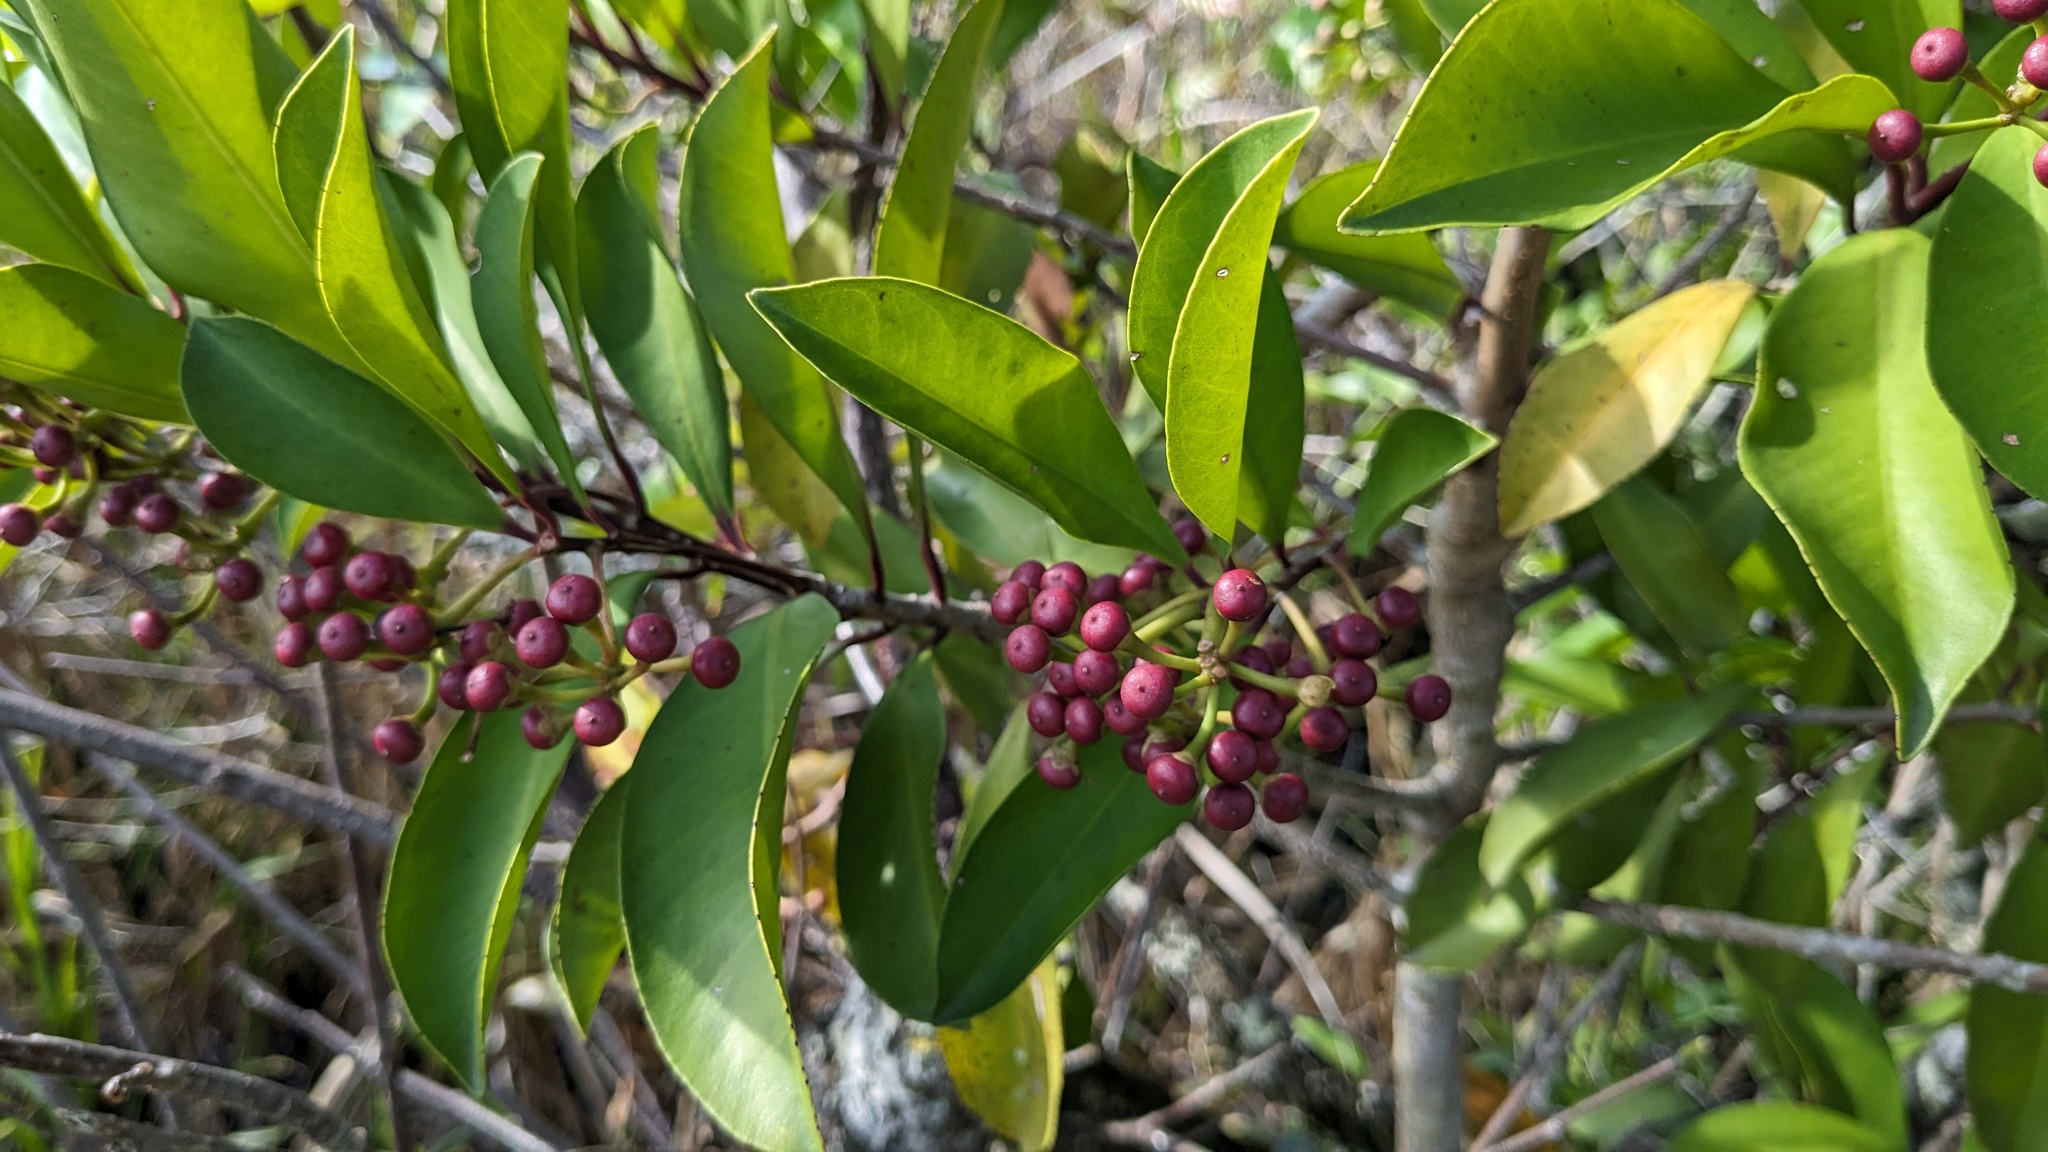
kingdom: Plantae
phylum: Tracheophyta
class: Magnoliopsida
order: Ericales
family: Primulaceae
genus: Ardisia
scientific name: Ardisia elliptica
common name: Shoebutton
